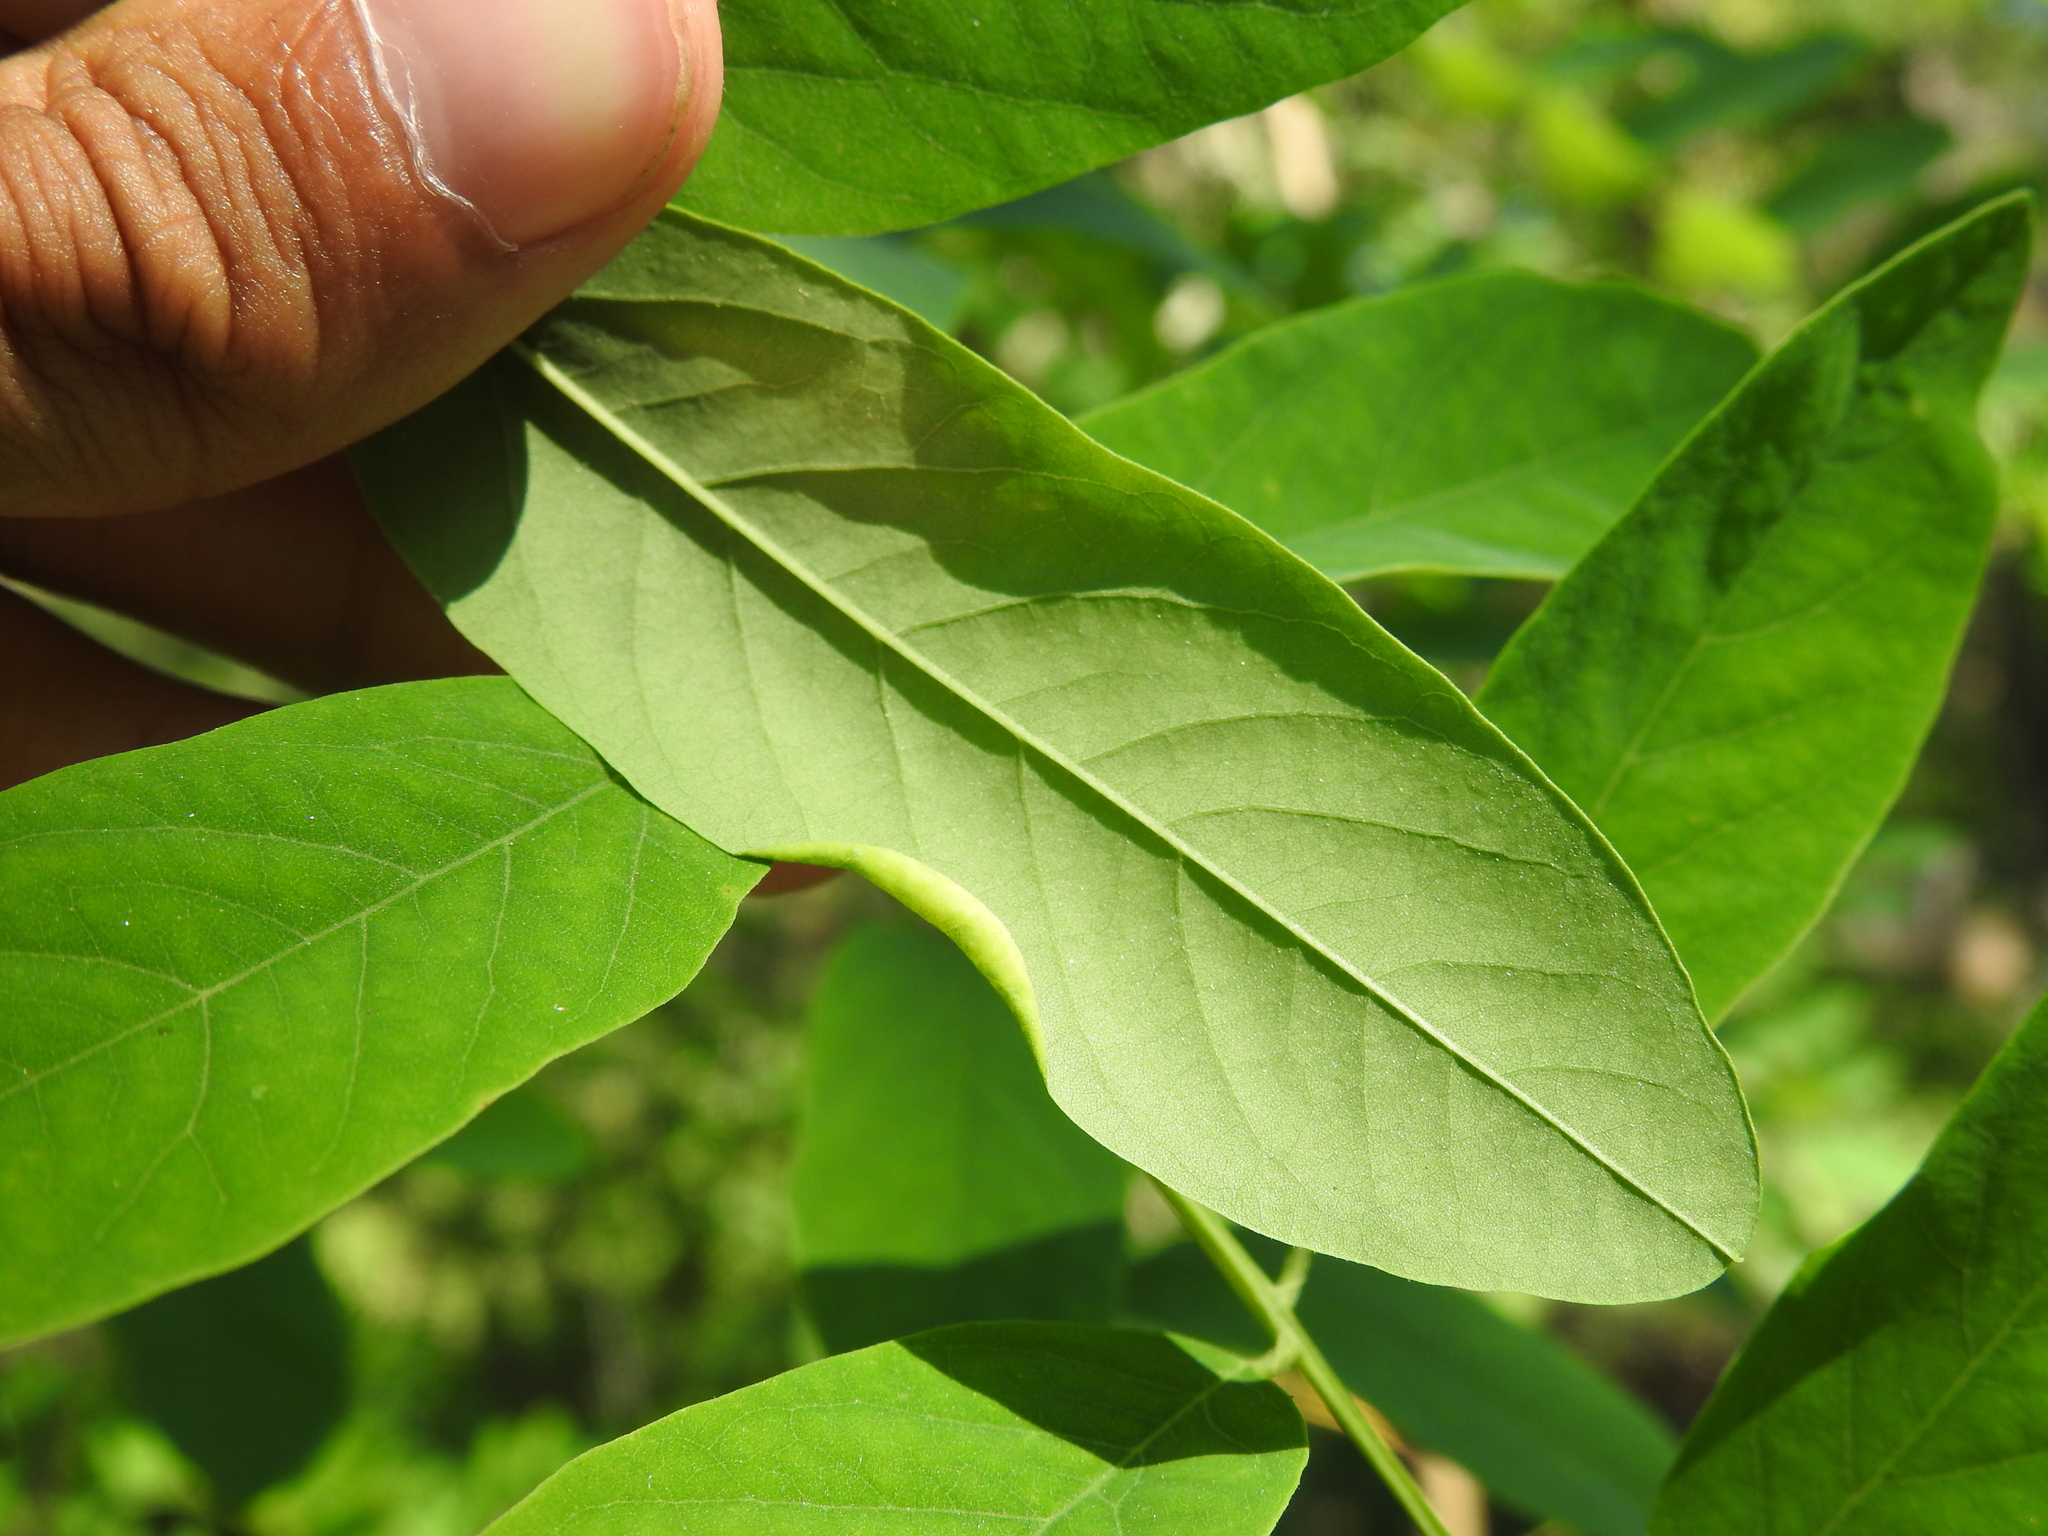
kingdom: Animalia
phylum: Arthropoda
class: Insecta
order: Diptera
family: Cecidomyiidae
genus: Obolodiplosis
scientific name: Obolodiplosis robiniae
